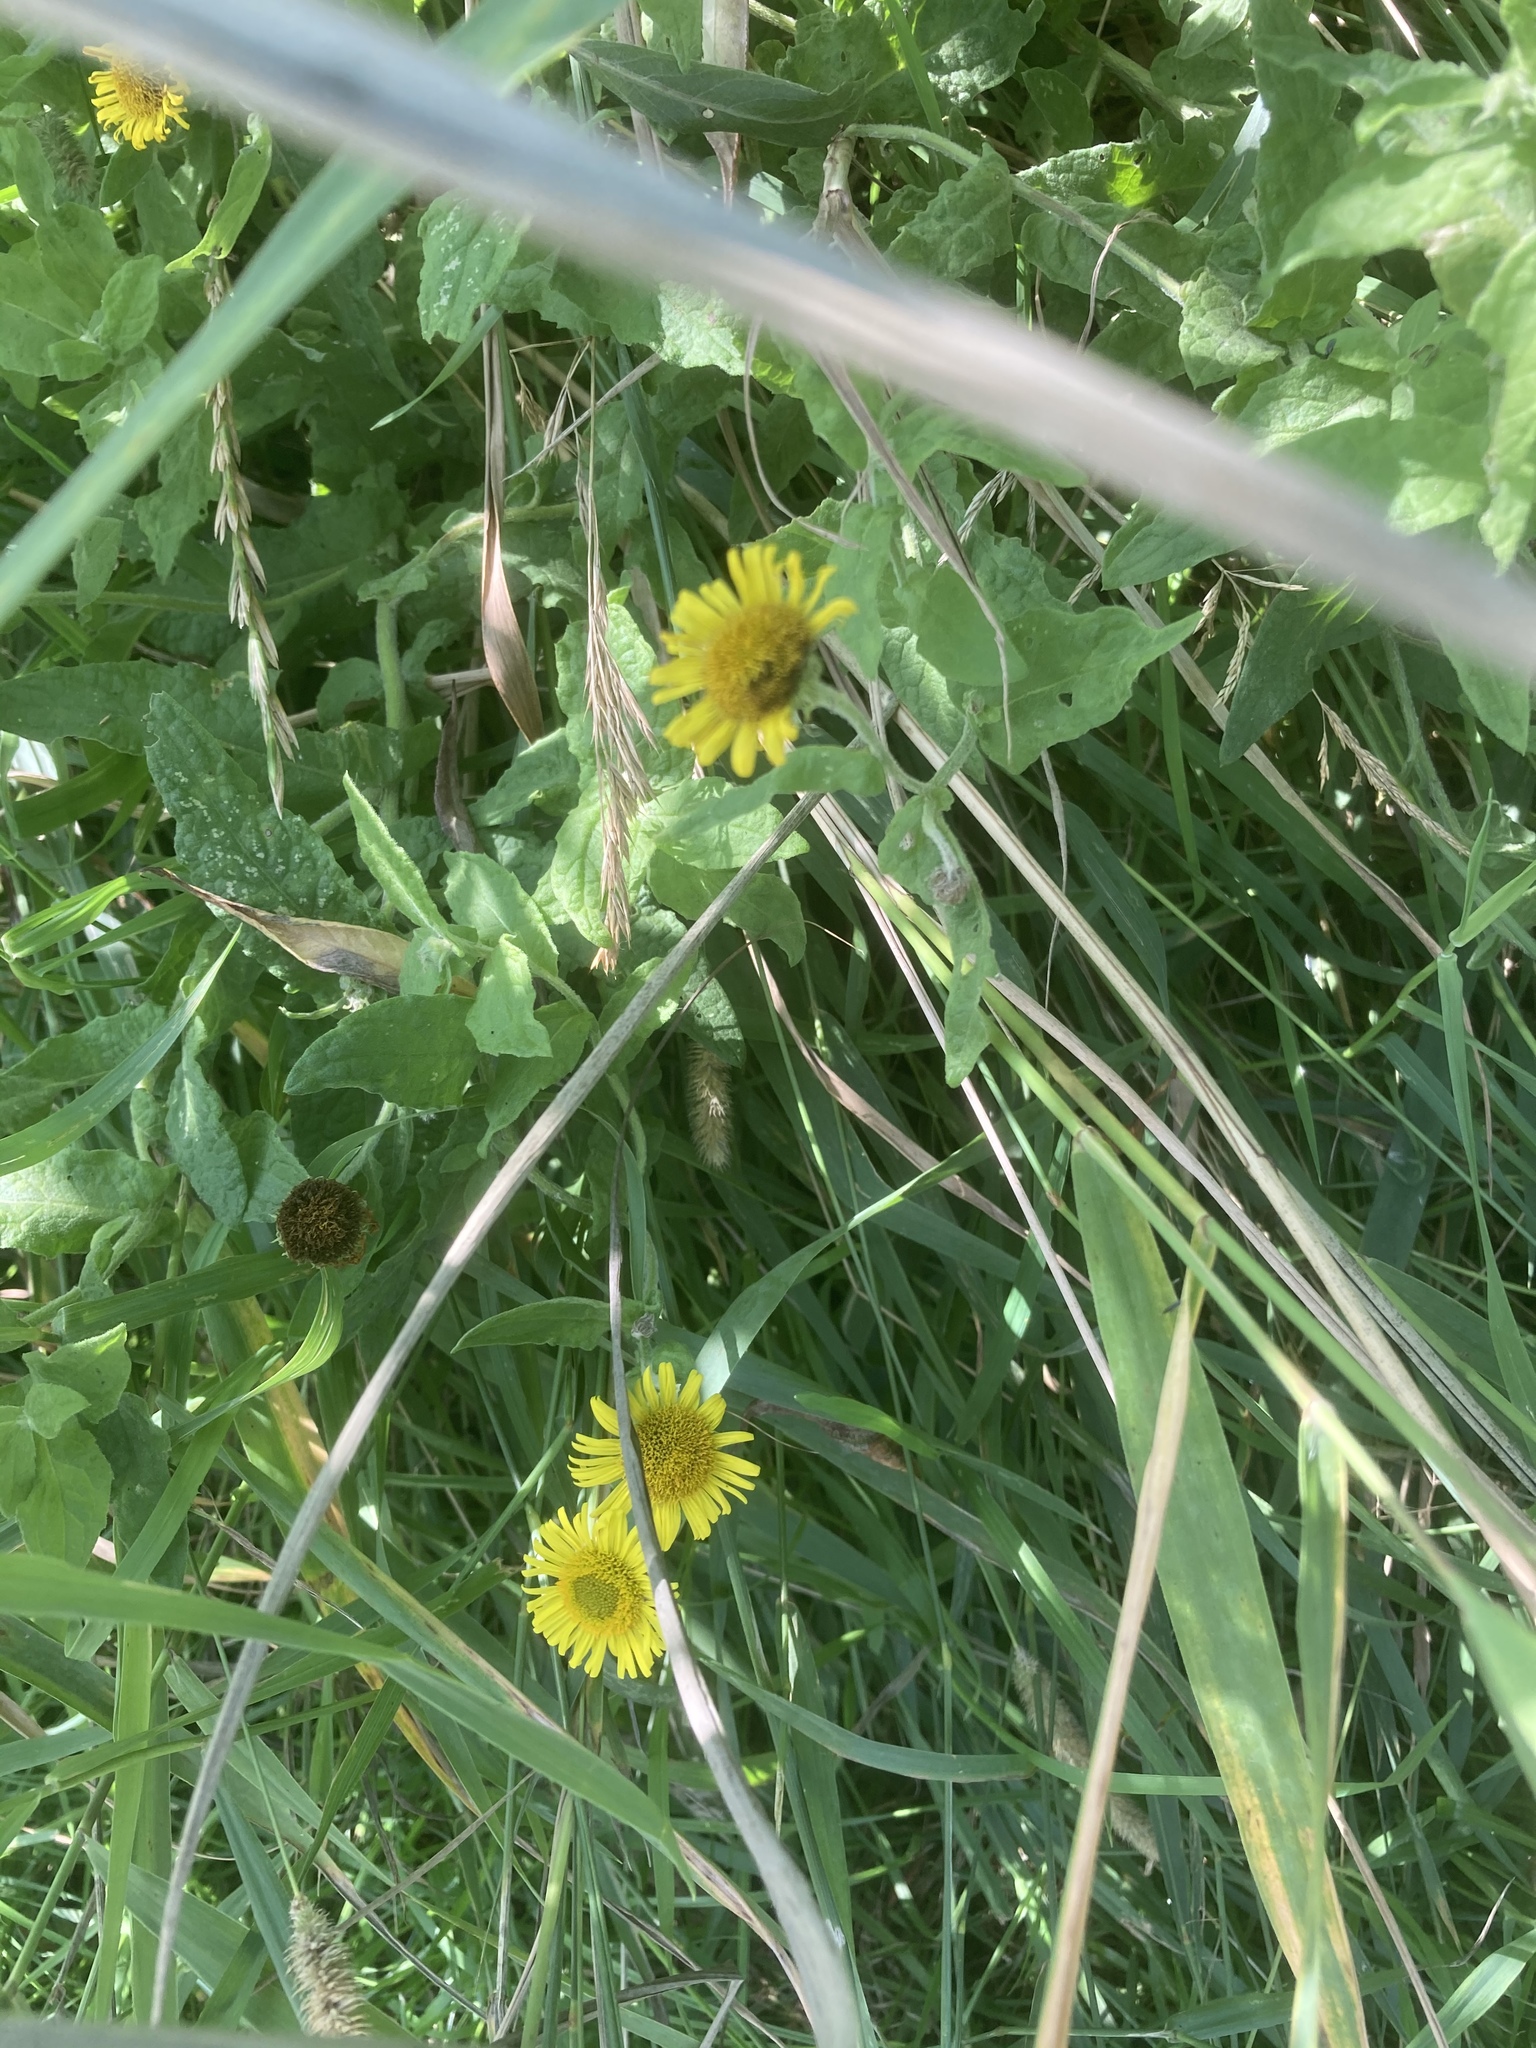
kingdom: Plantae
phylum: Tracheophyta
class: Magnoliopsida
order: Asterales
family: Asteraceae
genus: Pulicaria
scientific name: Pulicaria dysenterica
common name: Common fleabane
